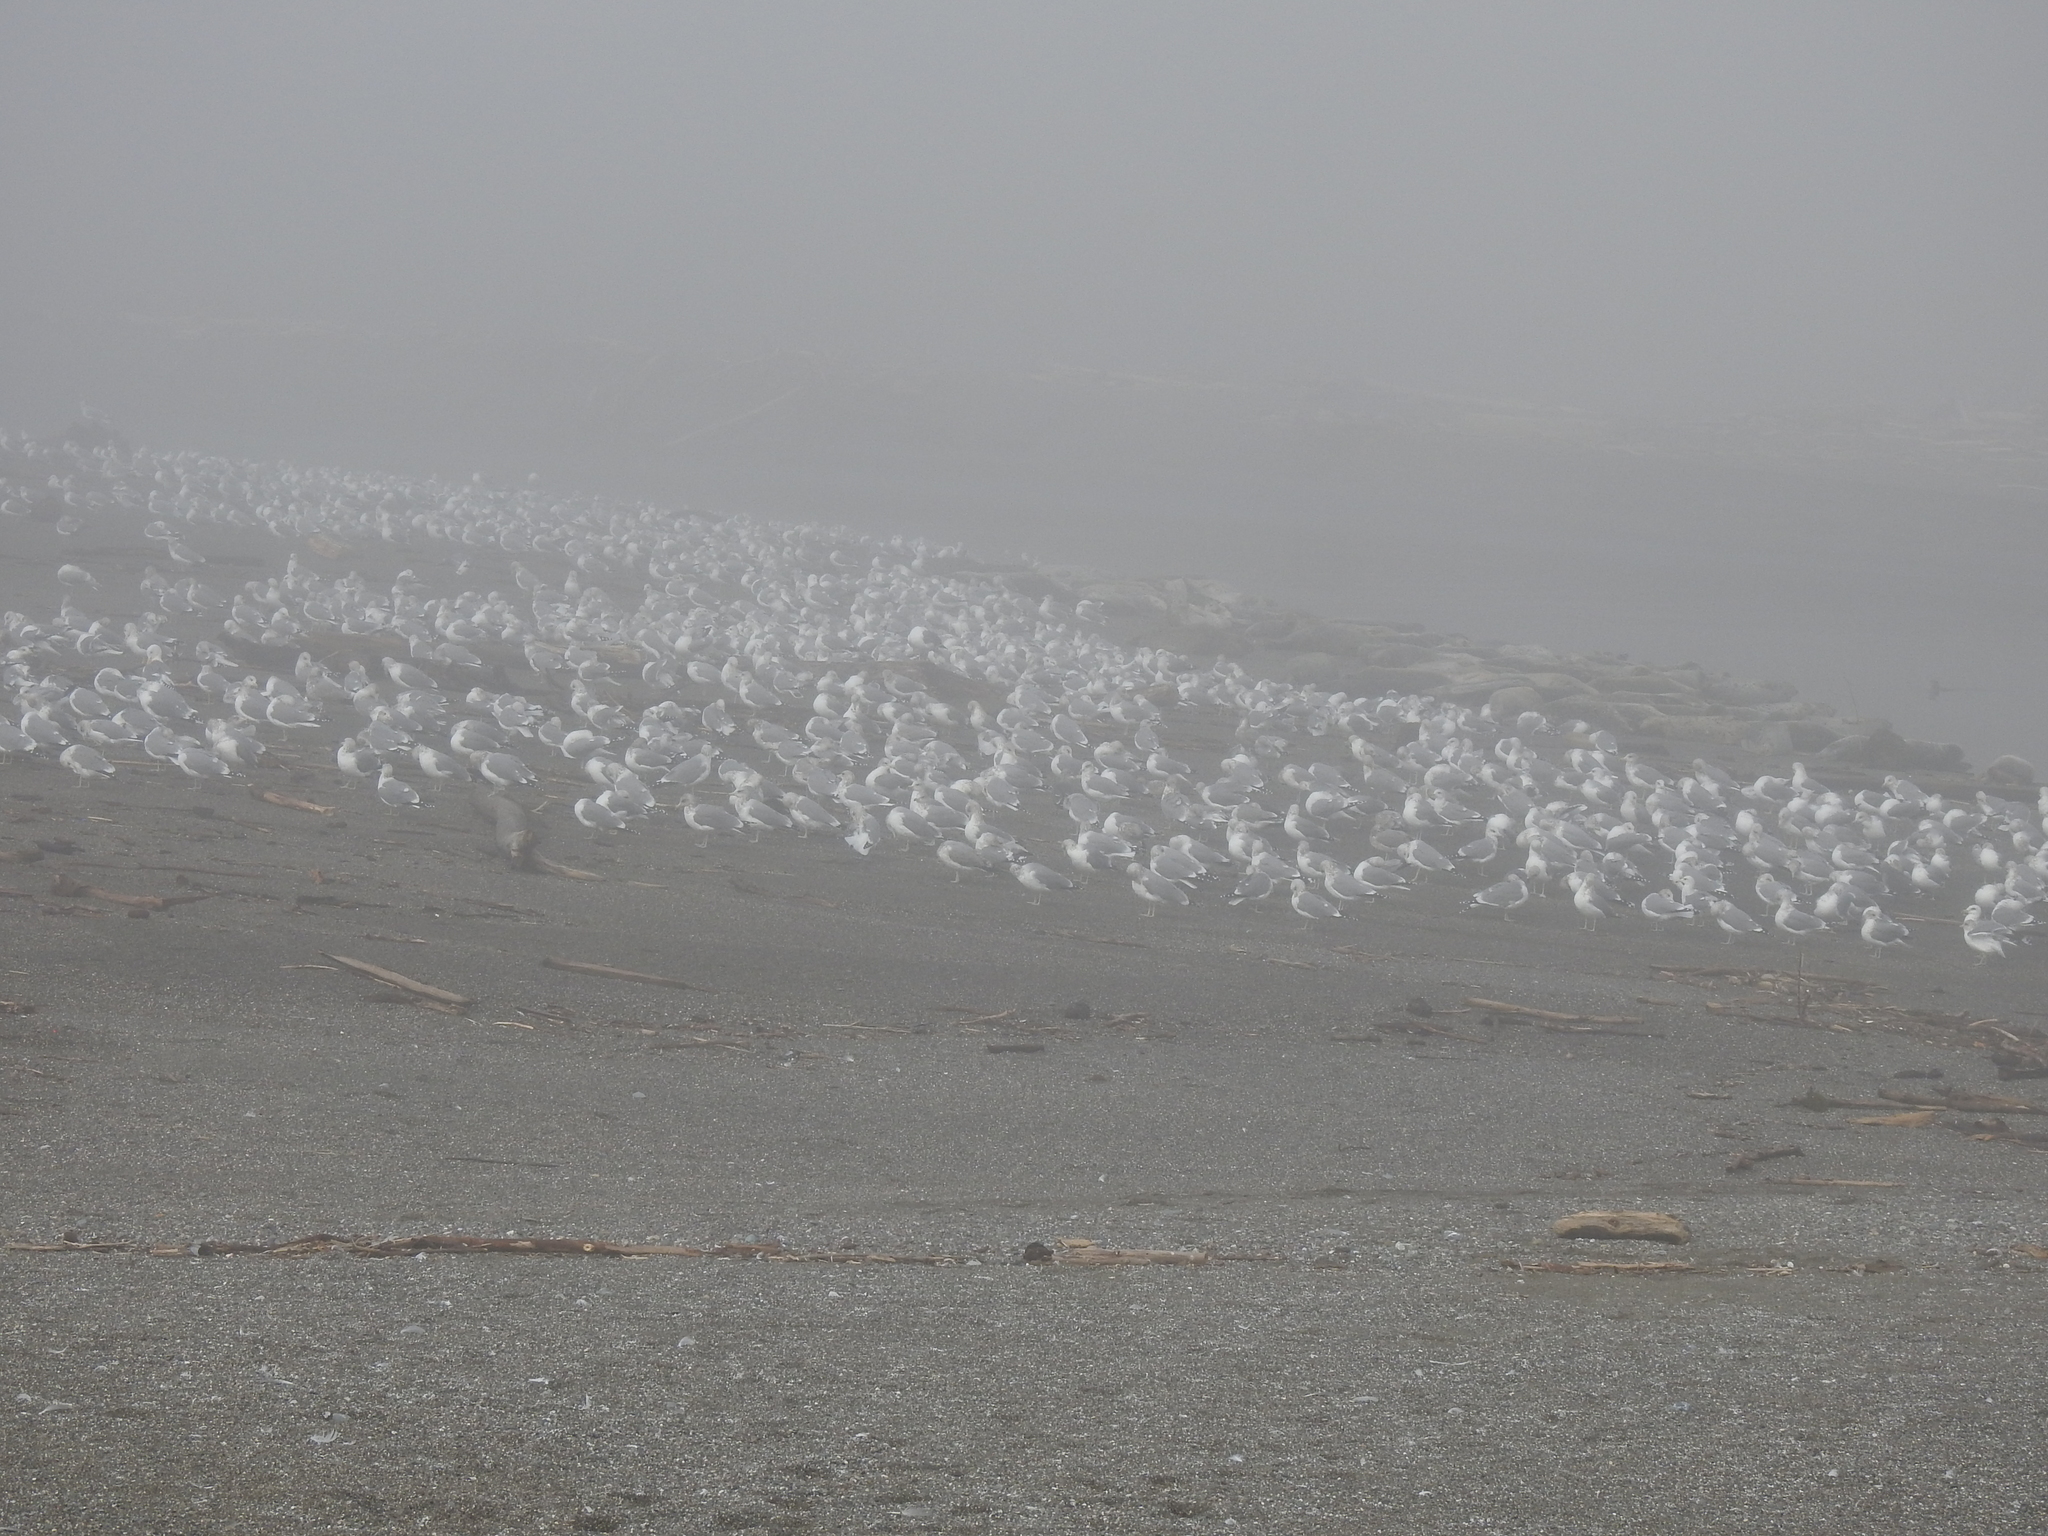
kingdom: Animalia
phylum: Chordata
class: Aves
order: Charadriiformes
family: Laridae
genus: Larus
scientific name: Larus
